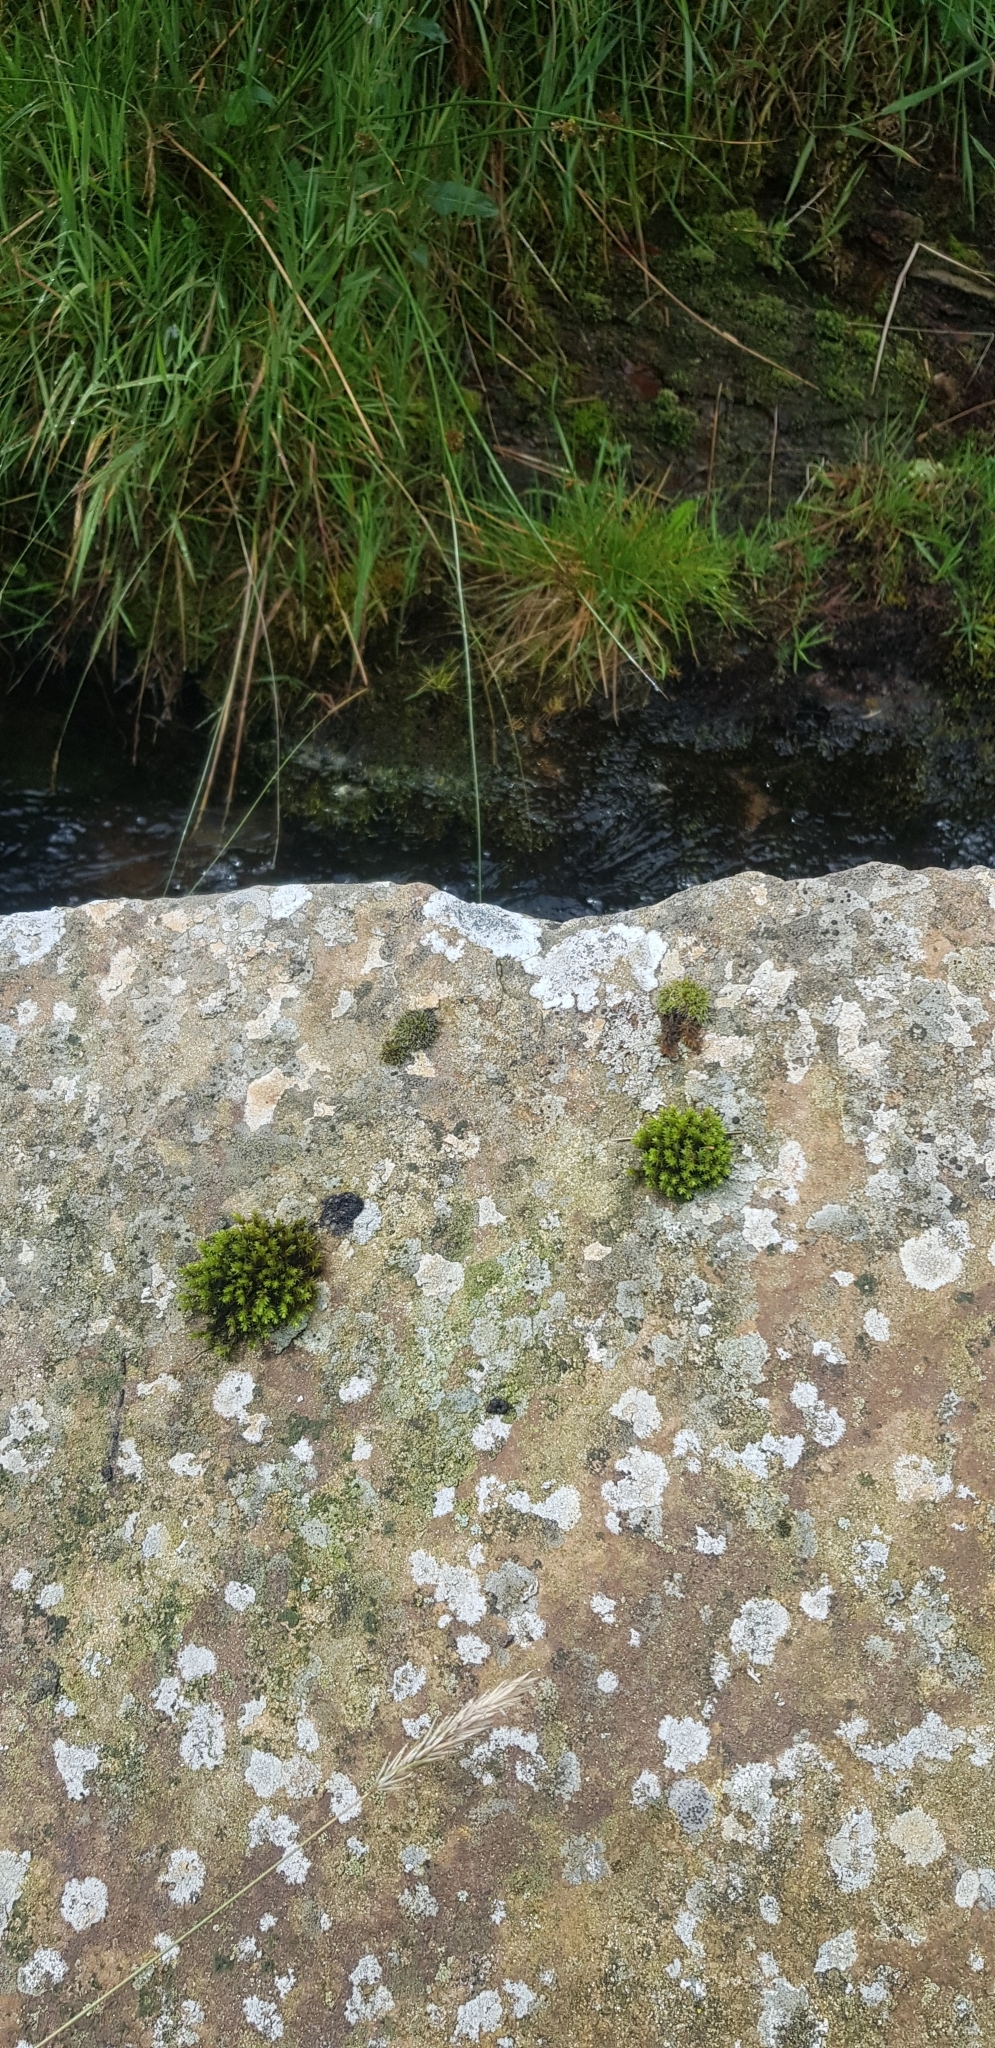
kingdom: Plantae
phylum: Bryophyta
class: Bryopsida
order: Grimmiales
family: Grimmiaceae
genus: Codriophorus
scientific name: Codriophorus acicularis
